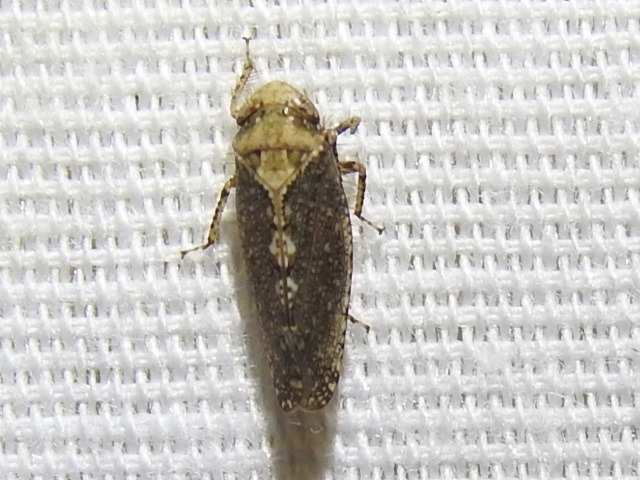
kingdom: Animalia
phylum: Arthropoda
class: Insecta
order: Hemiptera
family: Cicadellidae
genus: Excultanus
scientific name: Excultanus excultus
